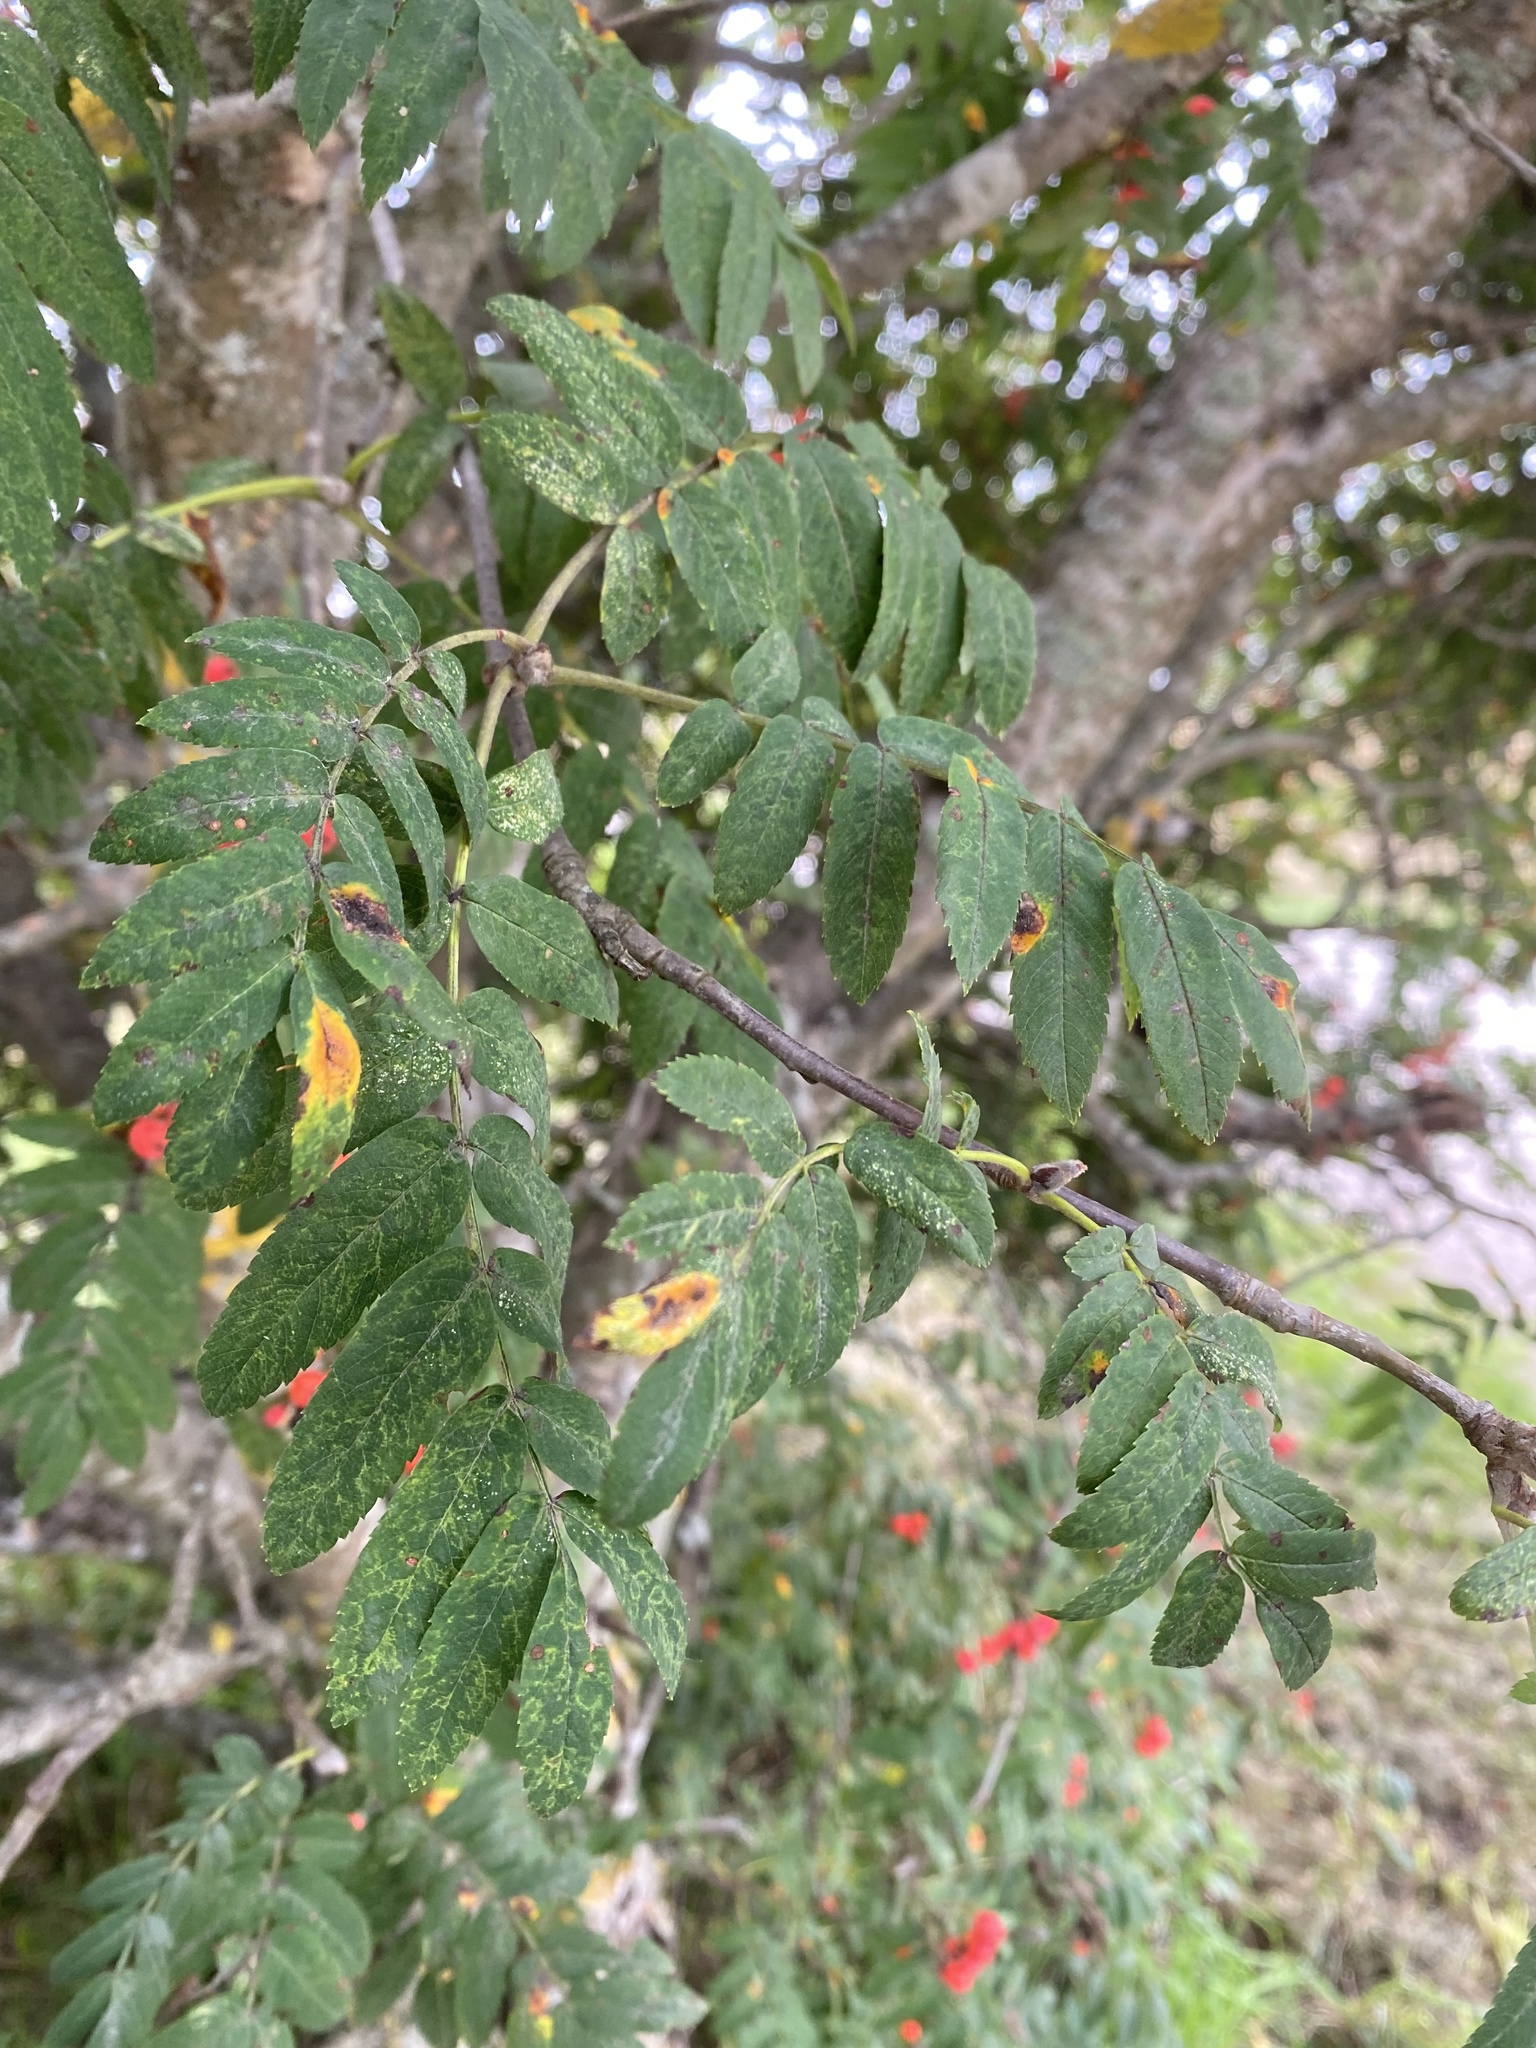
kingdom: Viruses
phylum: Negarnaviricota
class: Ellioviricetes
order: Bunyavirales
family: Fimoviridae
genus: Emaravirus
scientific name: Emaravirus sorbi
